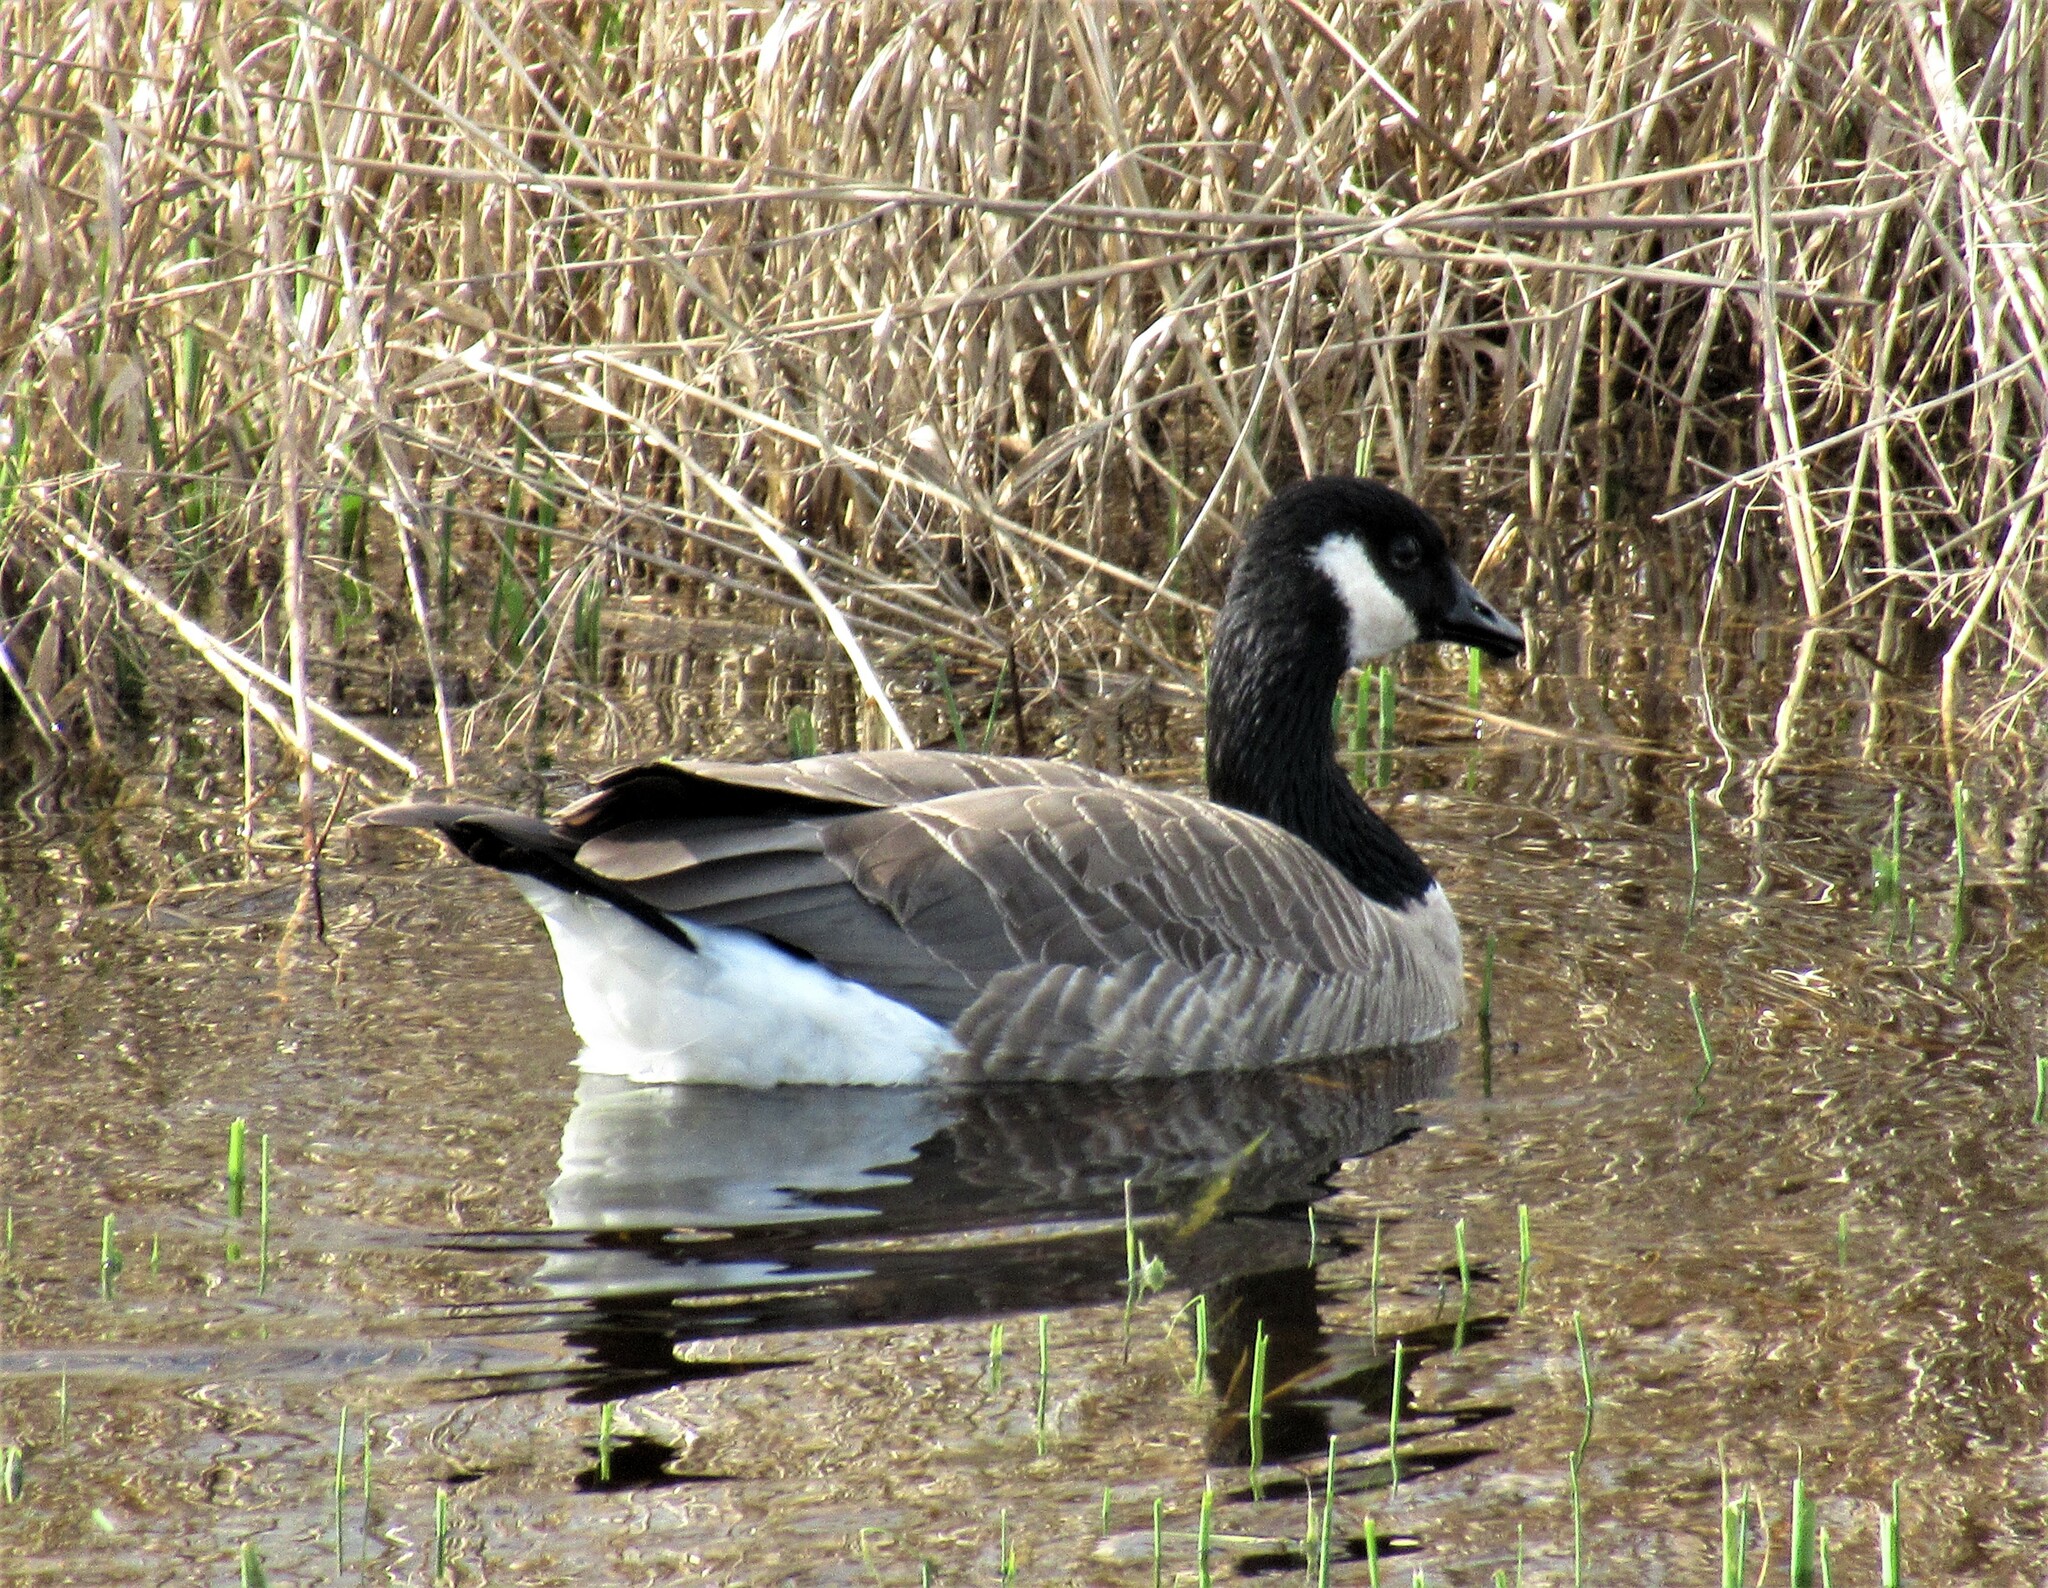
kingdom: Animalia
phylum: Chordata
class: Aves
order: Anseriformes
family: Anatidae
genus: Branta
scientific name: Branta hutchinsii
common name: Cackling goose
